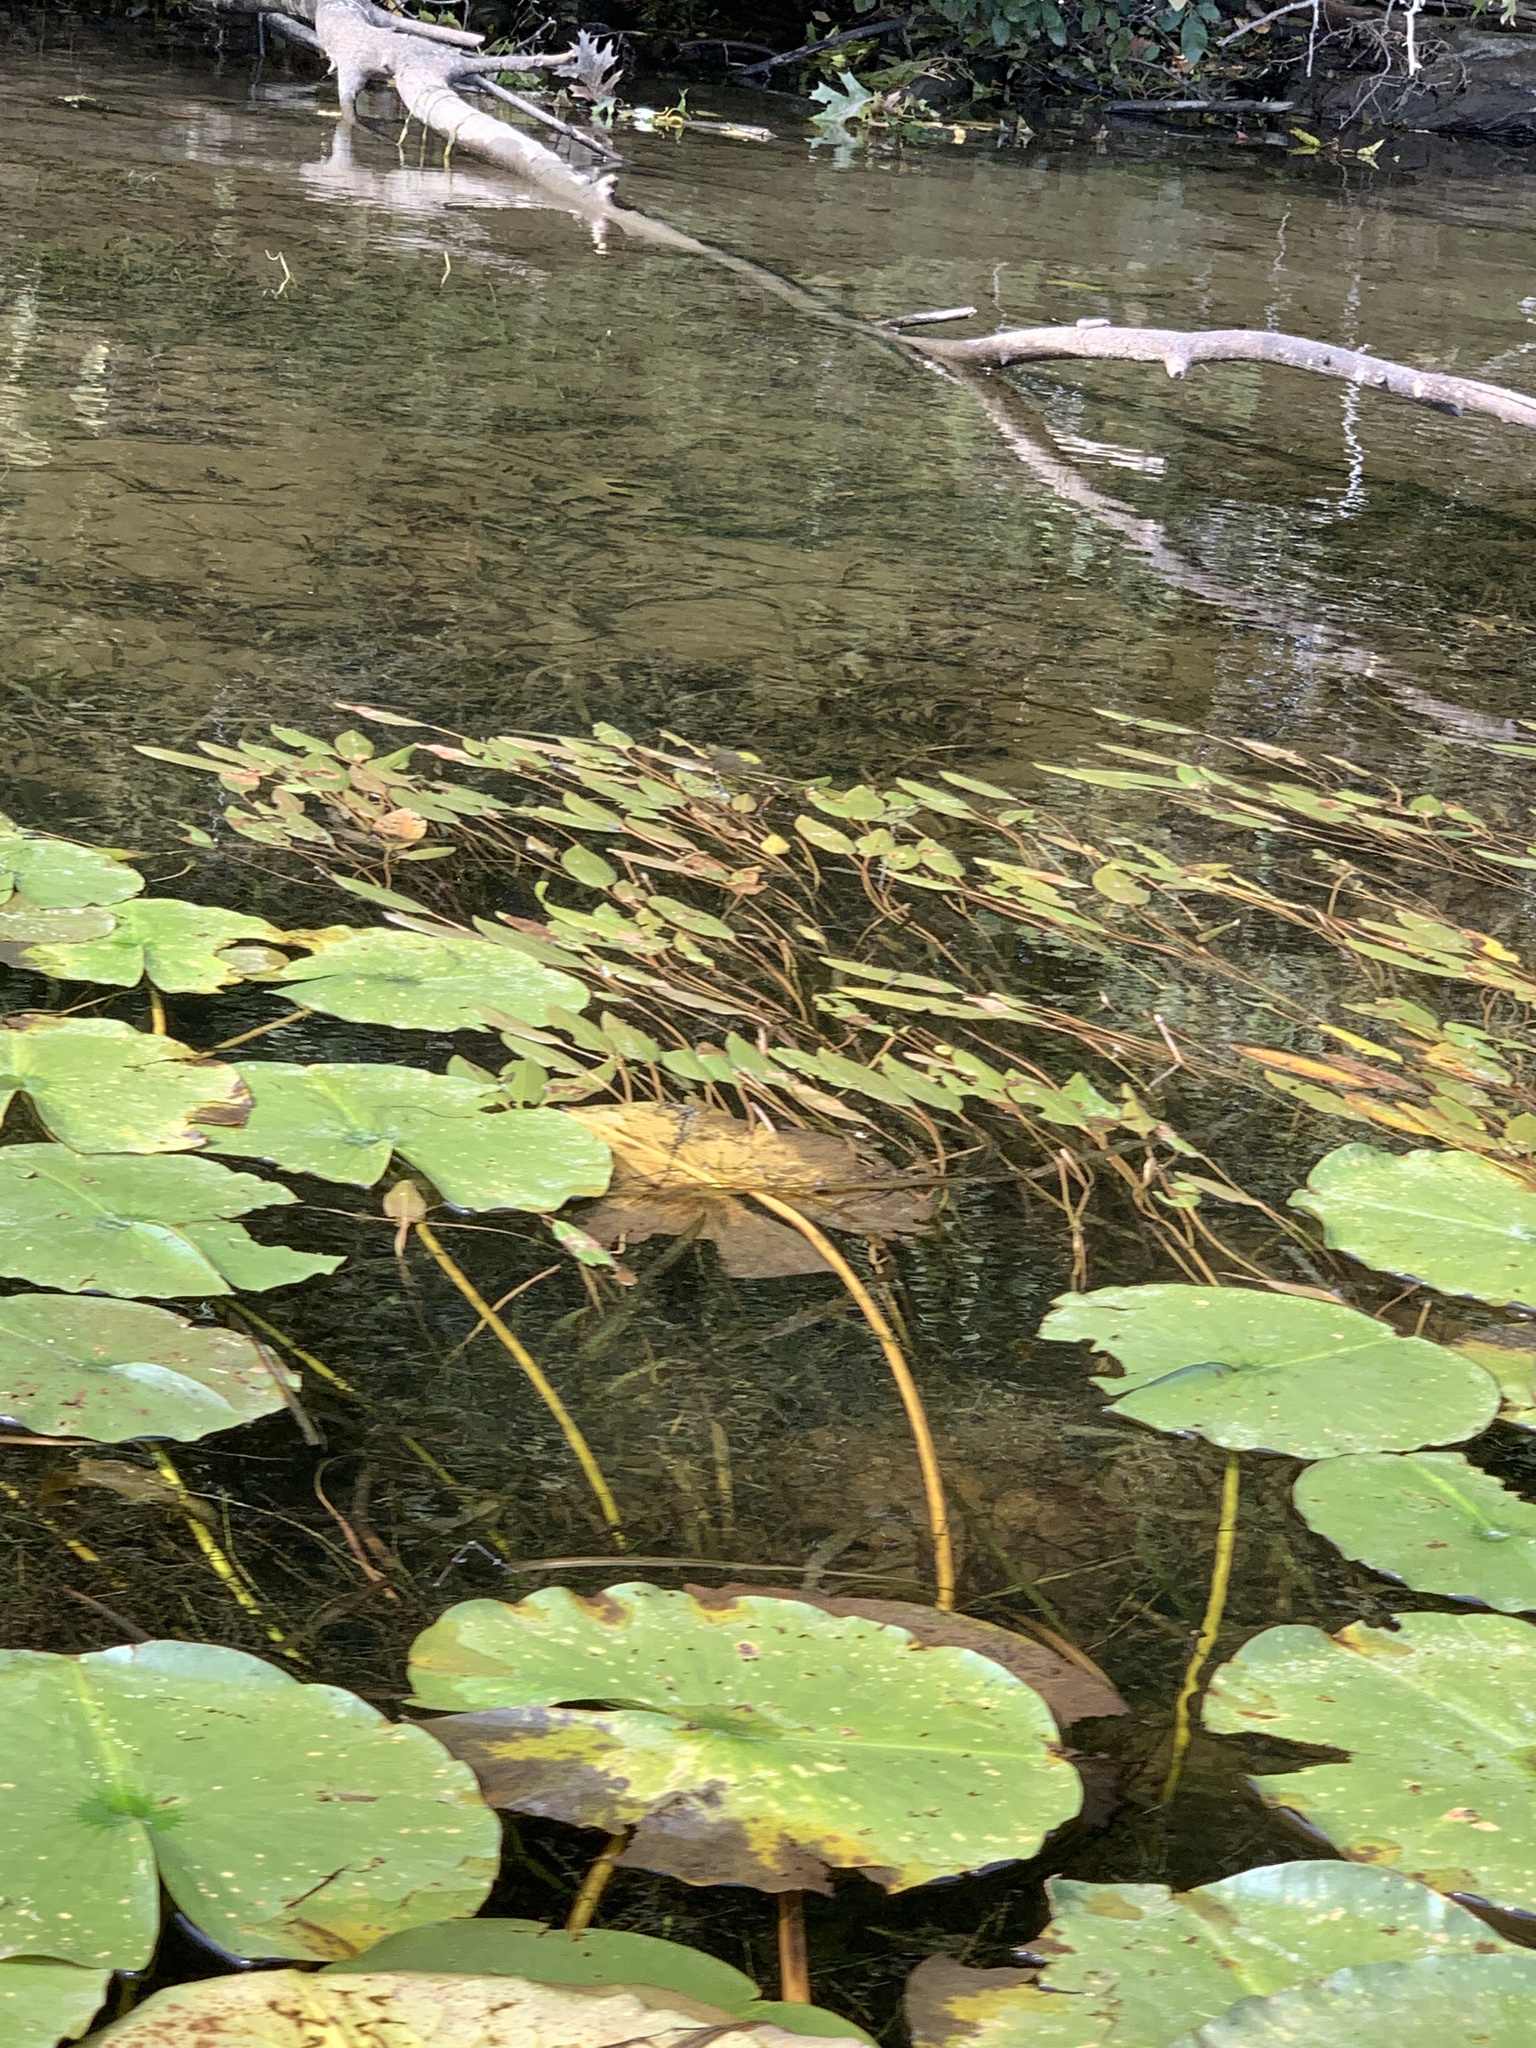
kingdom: Plantae
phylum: Tracheophyta
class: Liliopsida
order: Alismatales
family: Potamogetonaceae
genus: Potamogeton
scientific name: Potamogeton natans
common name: Broad-leaved pondweed
